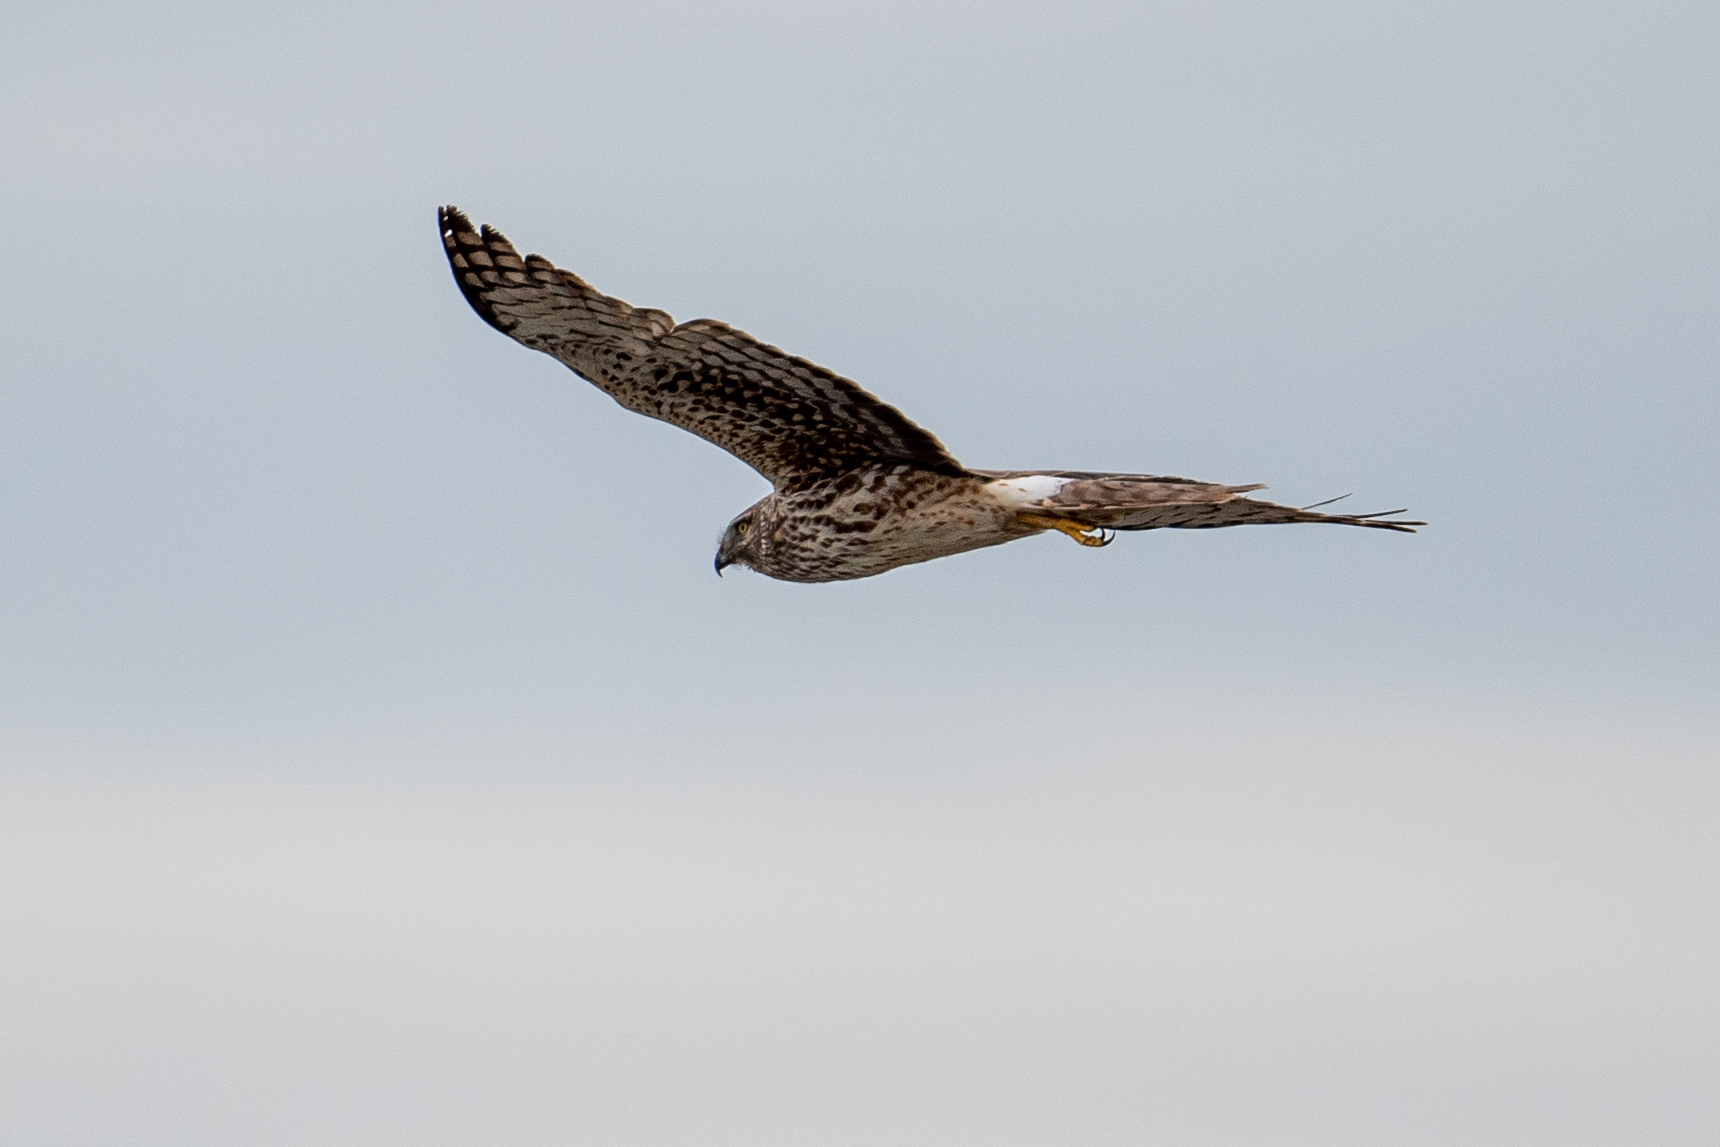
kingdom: Animalia
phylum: Chordata
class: Aves
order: Accipitriformes
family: Accipitridae
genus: Circus
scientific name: Circus cyaneus
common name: Hen harrier
